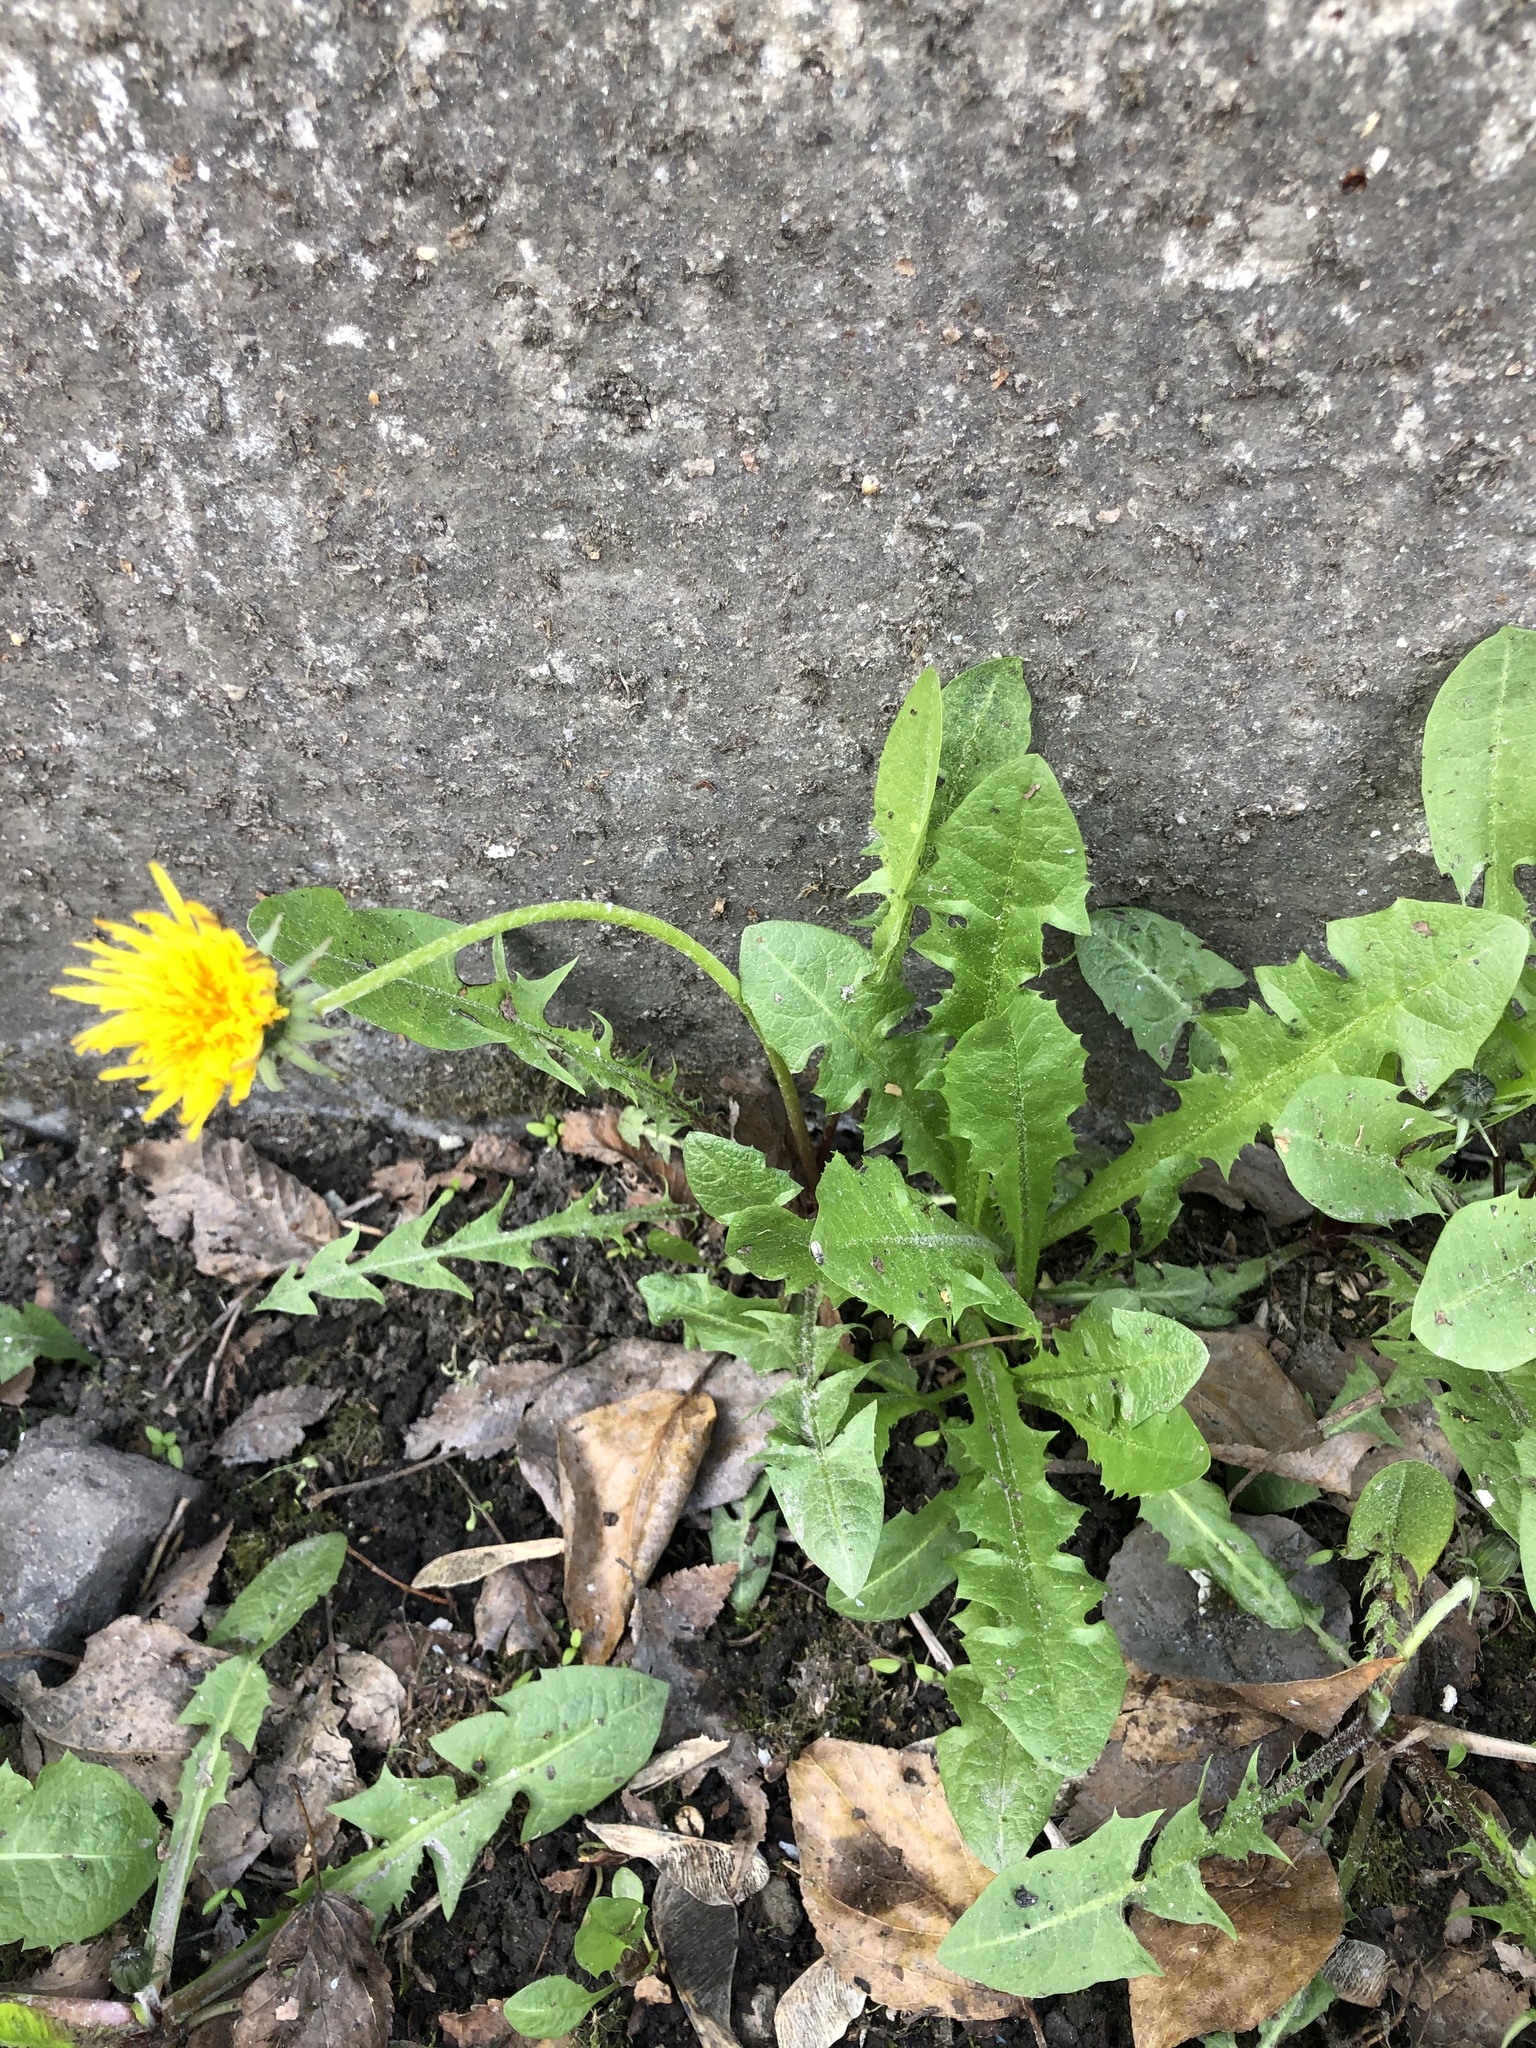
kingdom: Plantae
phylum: Tracheophyta
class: Magnoliopsida
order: Asterales
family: Asteraceae
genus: Taraxacum
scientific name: Taraxacum officinale
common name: Common dandelion
